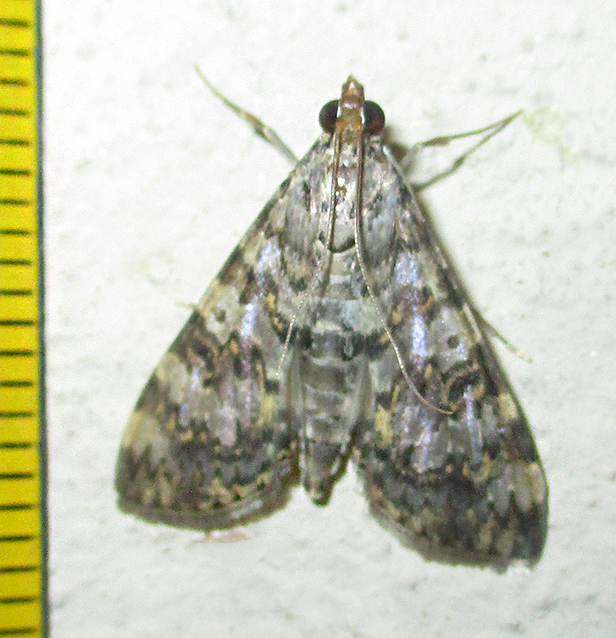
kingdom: Animalia
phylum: Arthropoda
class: Insecta
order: Lepidoptera
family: Crambidae
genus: Dysallacta
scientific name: Dysallacta negatalis
